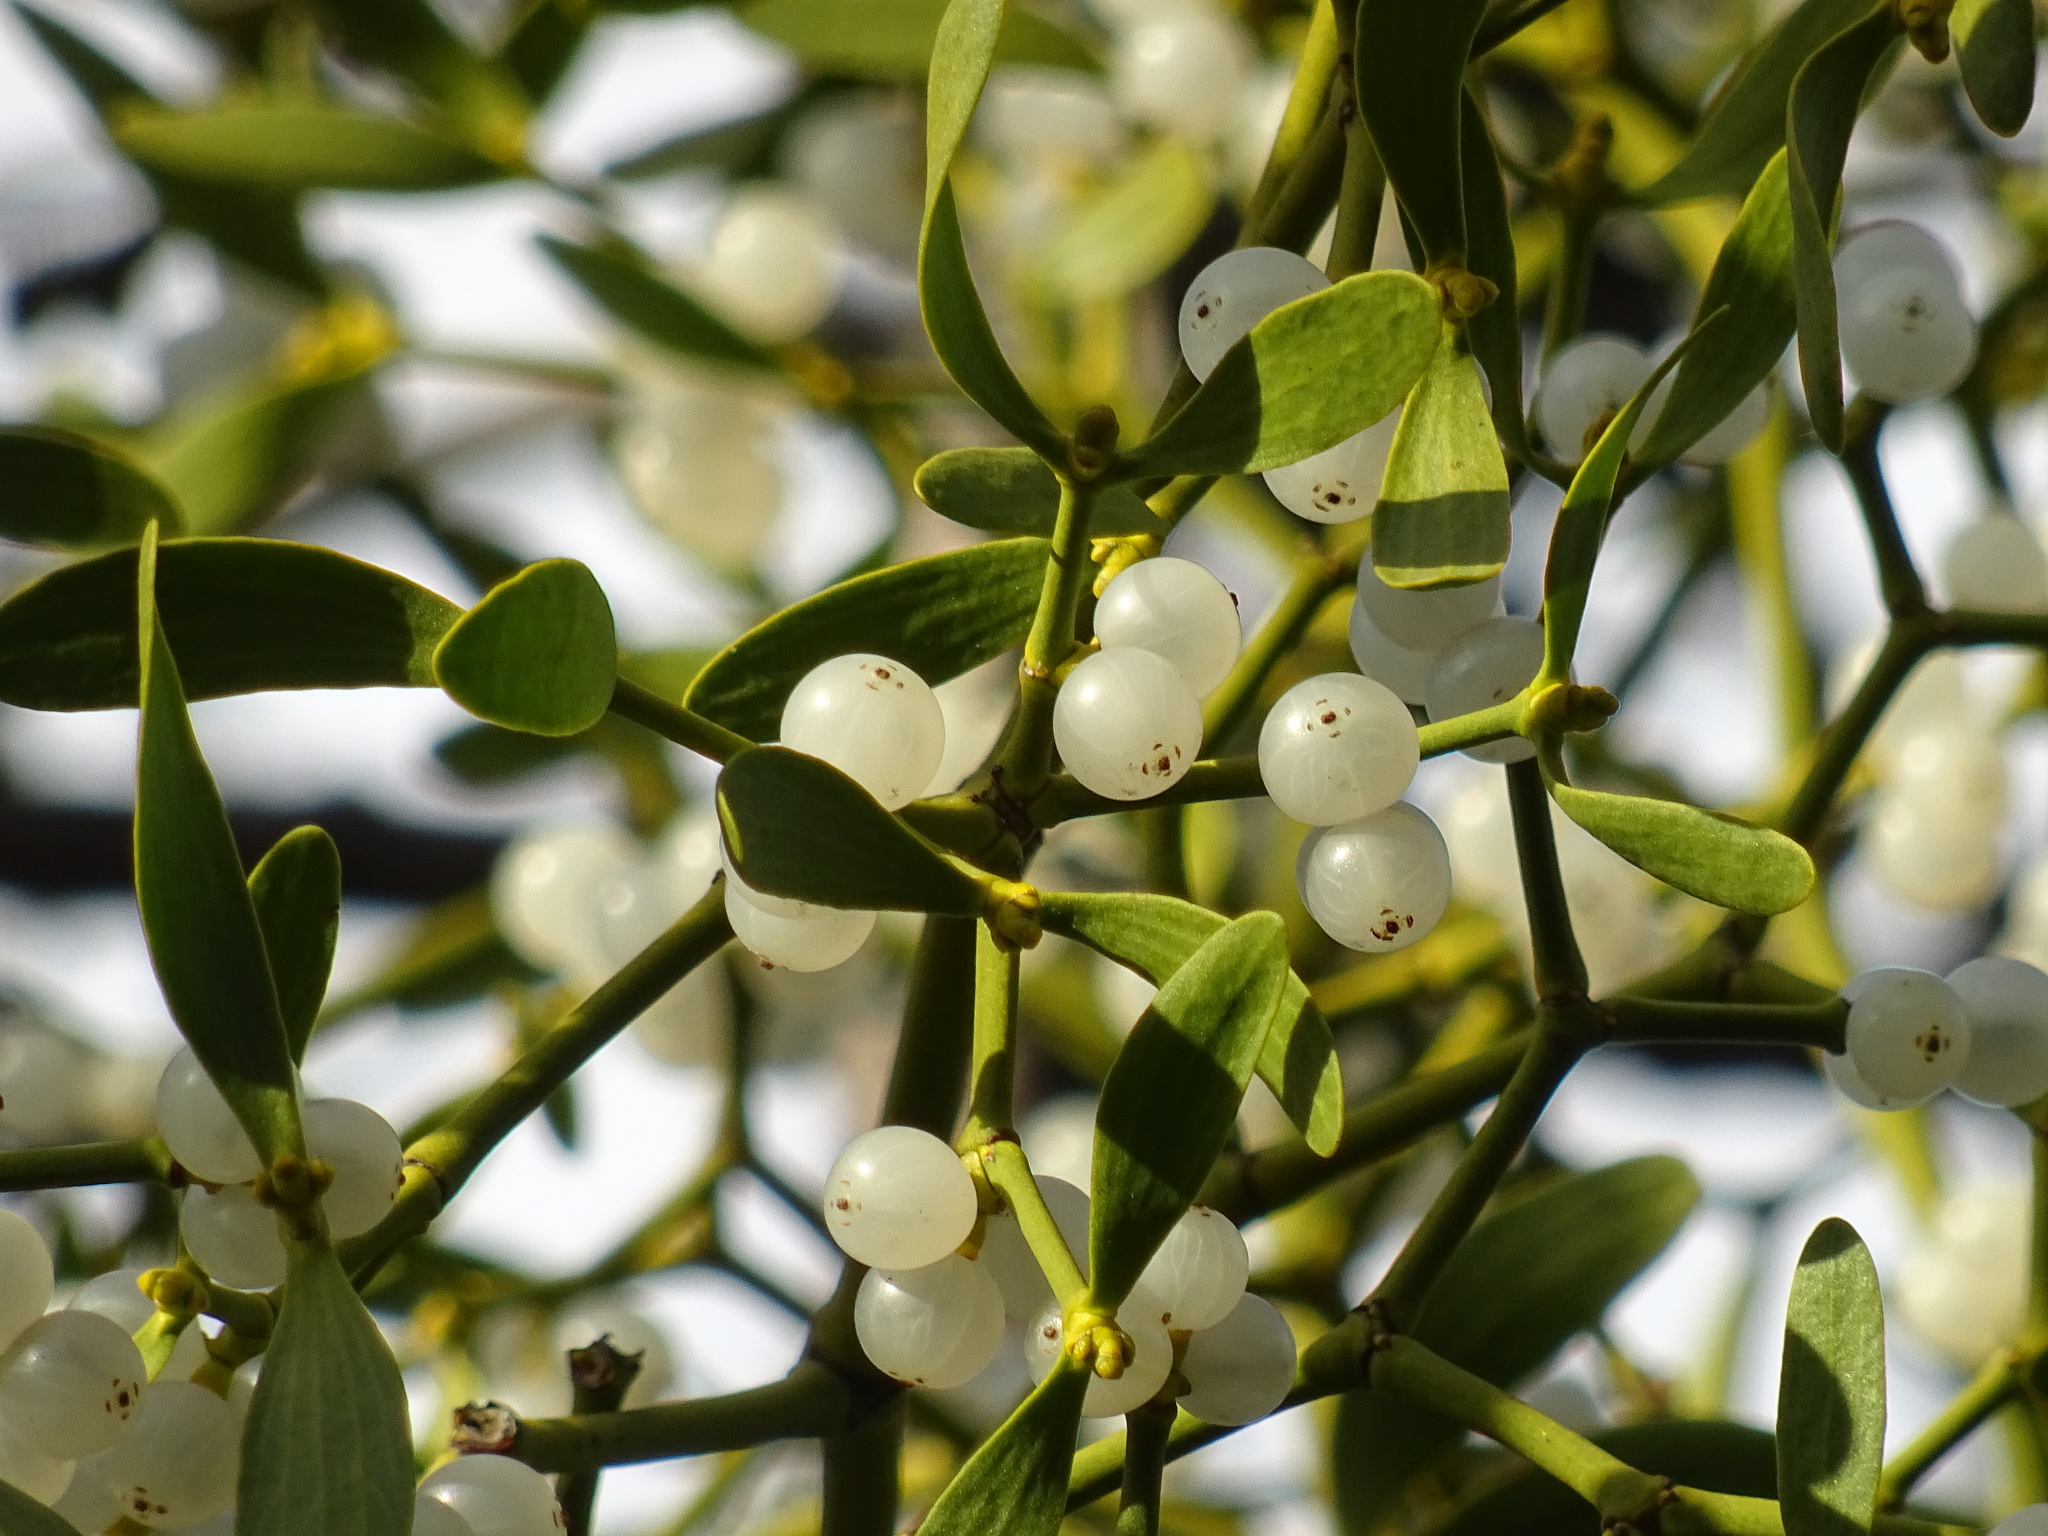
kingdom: Plantae
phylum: Tracheophyta
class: Magnoliopsida
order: Santalales
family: Viscaceae
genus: Viscum
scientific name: Viscum album
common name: Mistletoe
